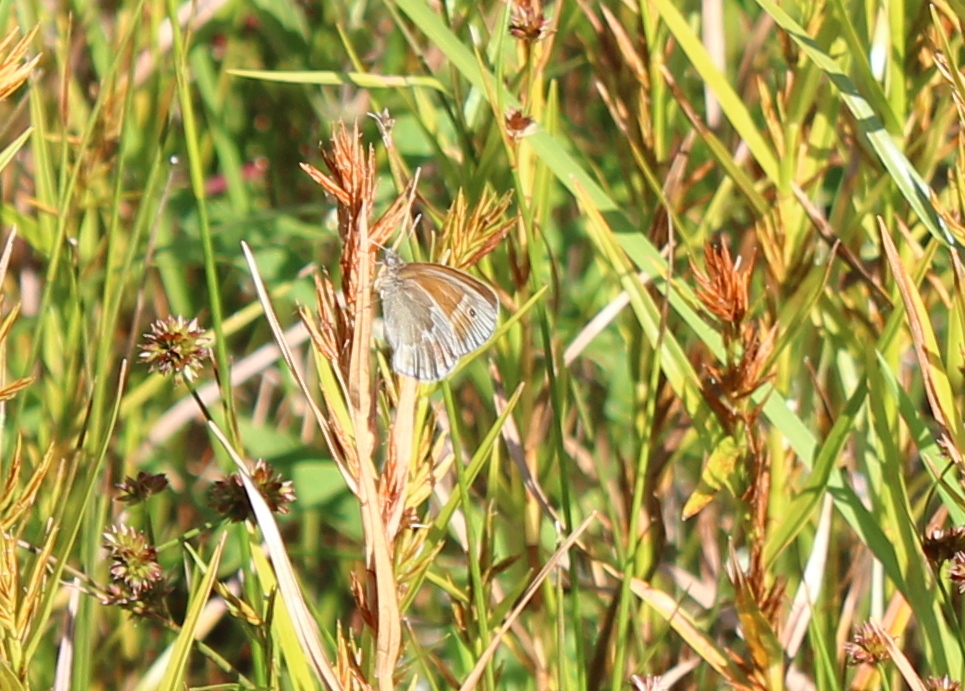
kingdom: Animalia
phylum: Arthropoda
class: Insecta
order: Lepidoptera
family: Nymphalidae
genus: Coenonympha
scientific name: Coenonympha california
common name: Common ringlet
